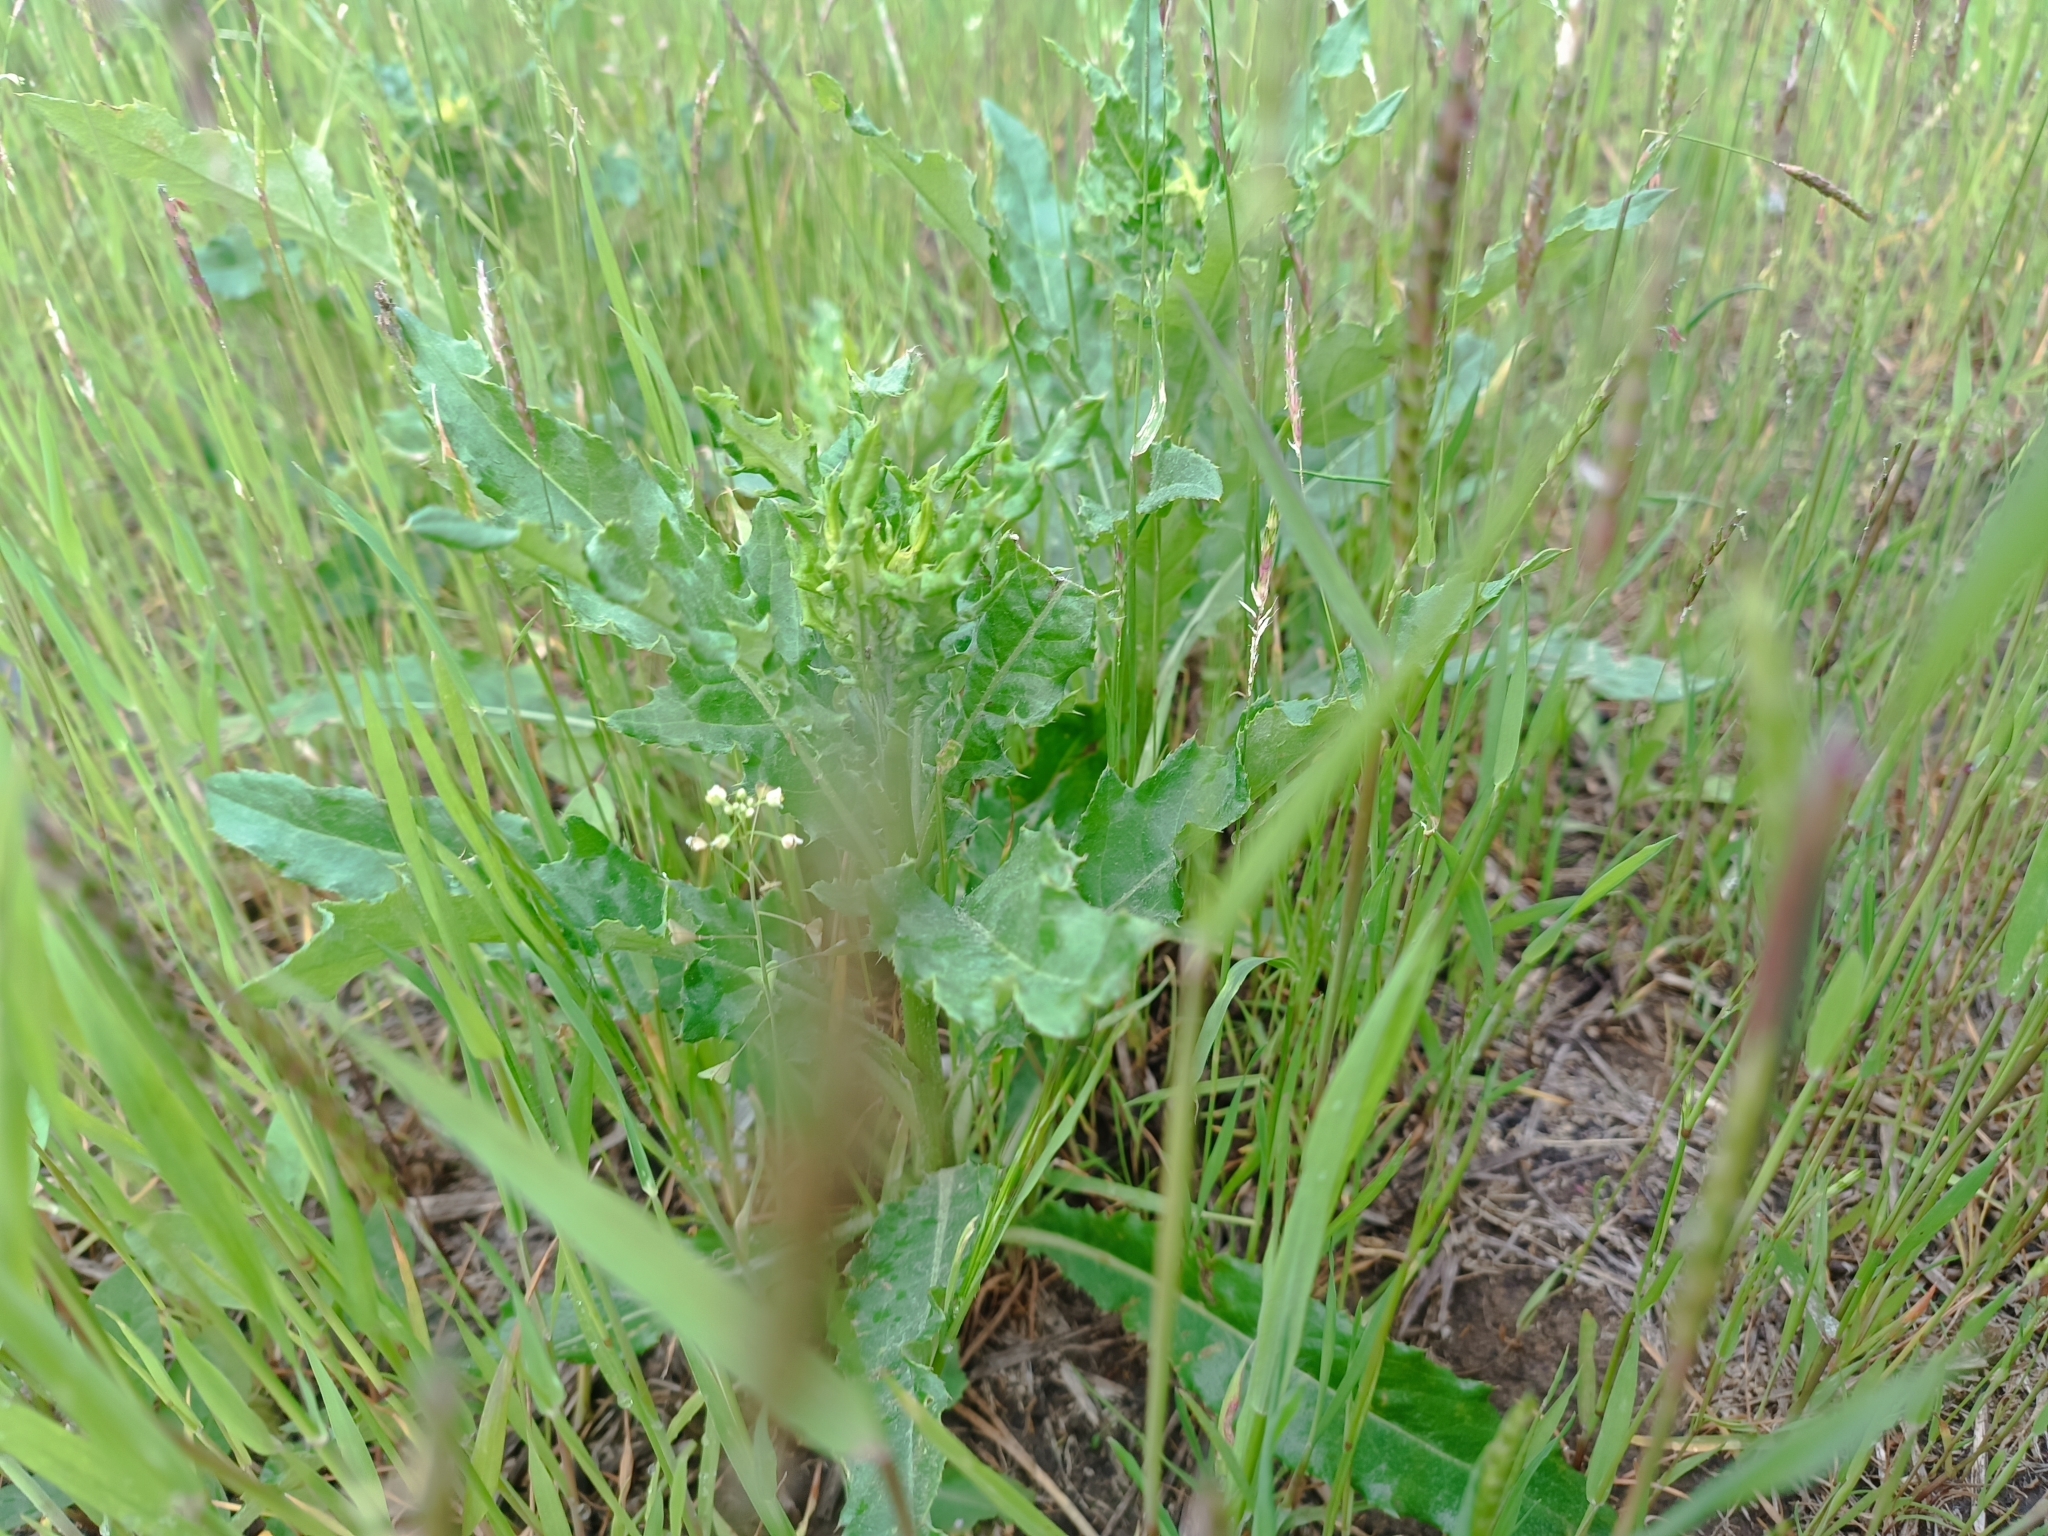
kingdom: Plantae
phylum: Tracheophyta
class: Magnoliopsida
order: Asterales
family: Asteraceae
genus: Cirsium
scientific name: Cirsium arvense
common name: Creeping thistle
